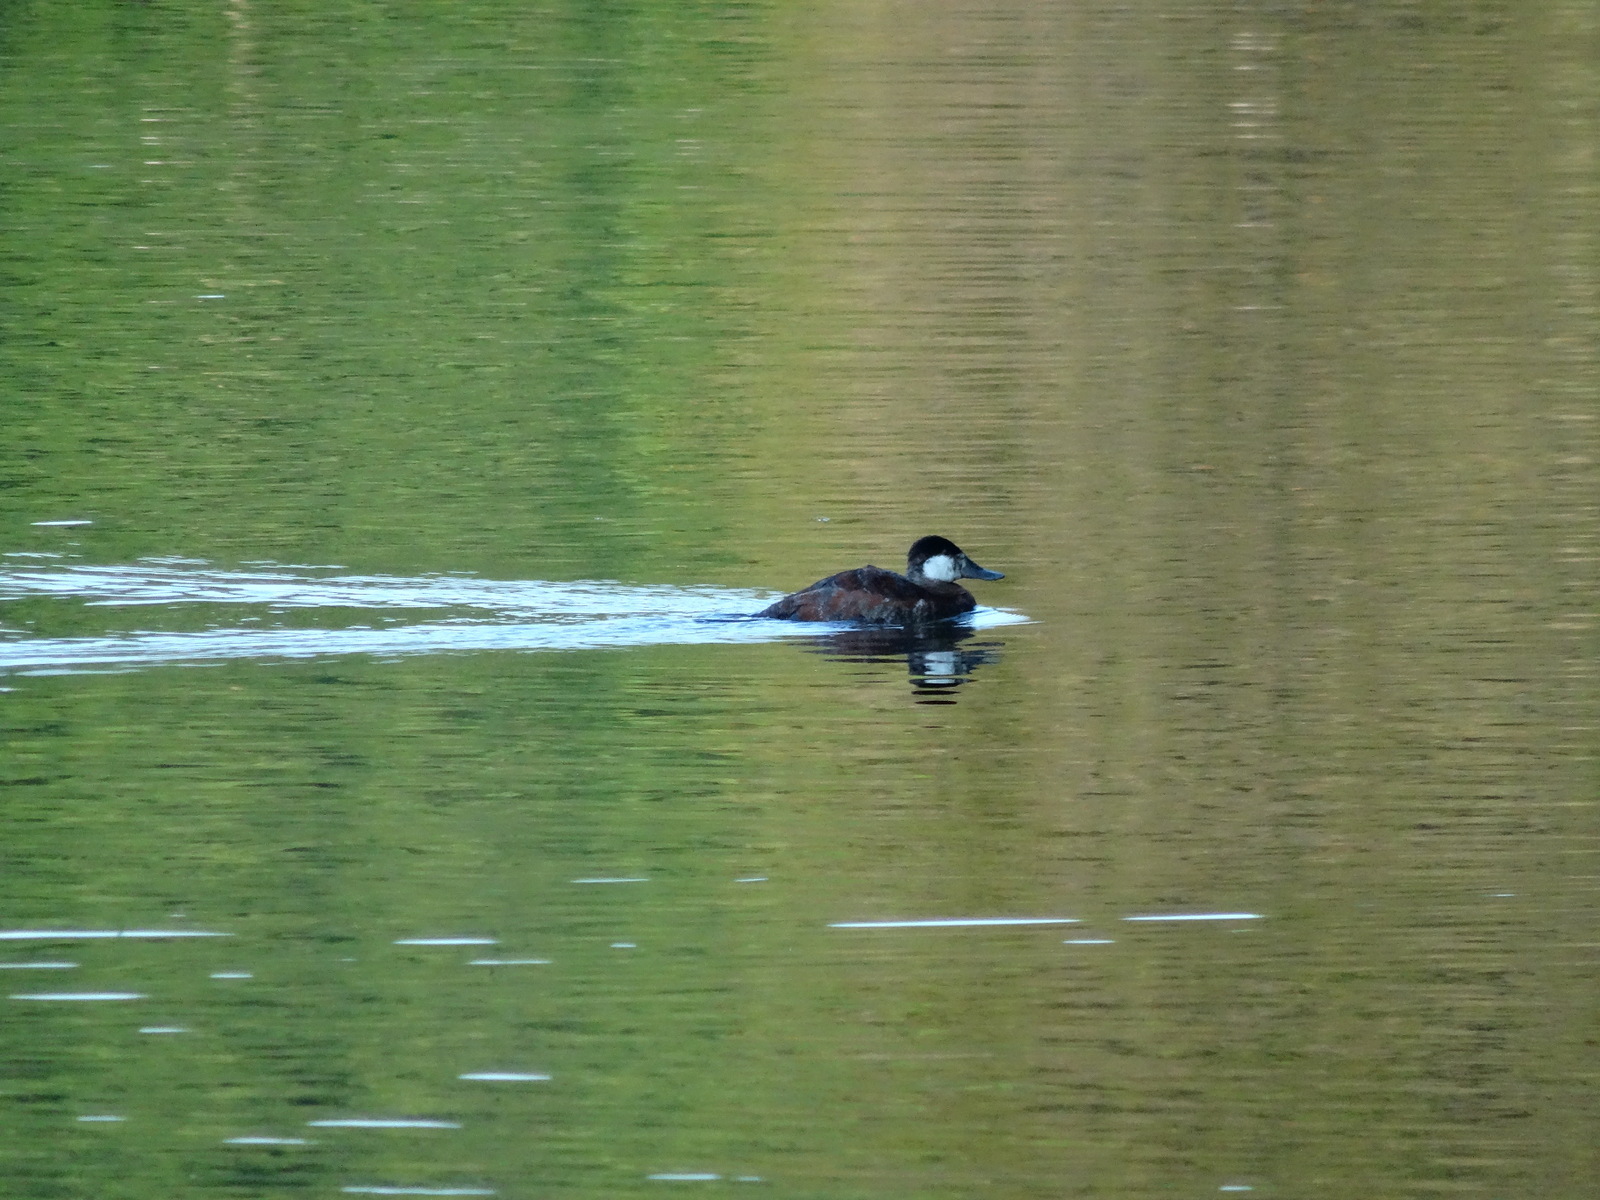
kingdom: Animalia
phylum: Chordata
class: Aves
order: Anseriformes
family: Anatidae
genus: Oxyura
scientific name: Oxyura jamaicensis
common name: Ruddy duck
